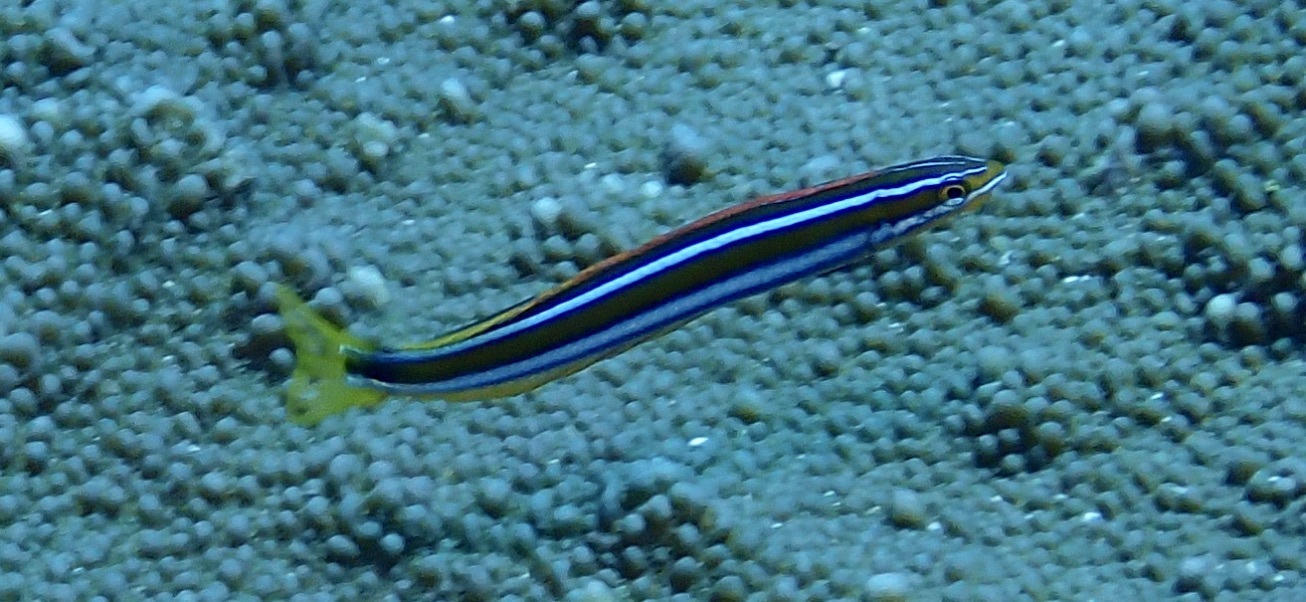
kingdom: Animalia
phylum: Chordata
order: Perciformes
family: Blenniidae
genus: Plagiotremus
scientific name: Plagiotremus rhinorhynchos
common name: Bluestriped fangblenny
